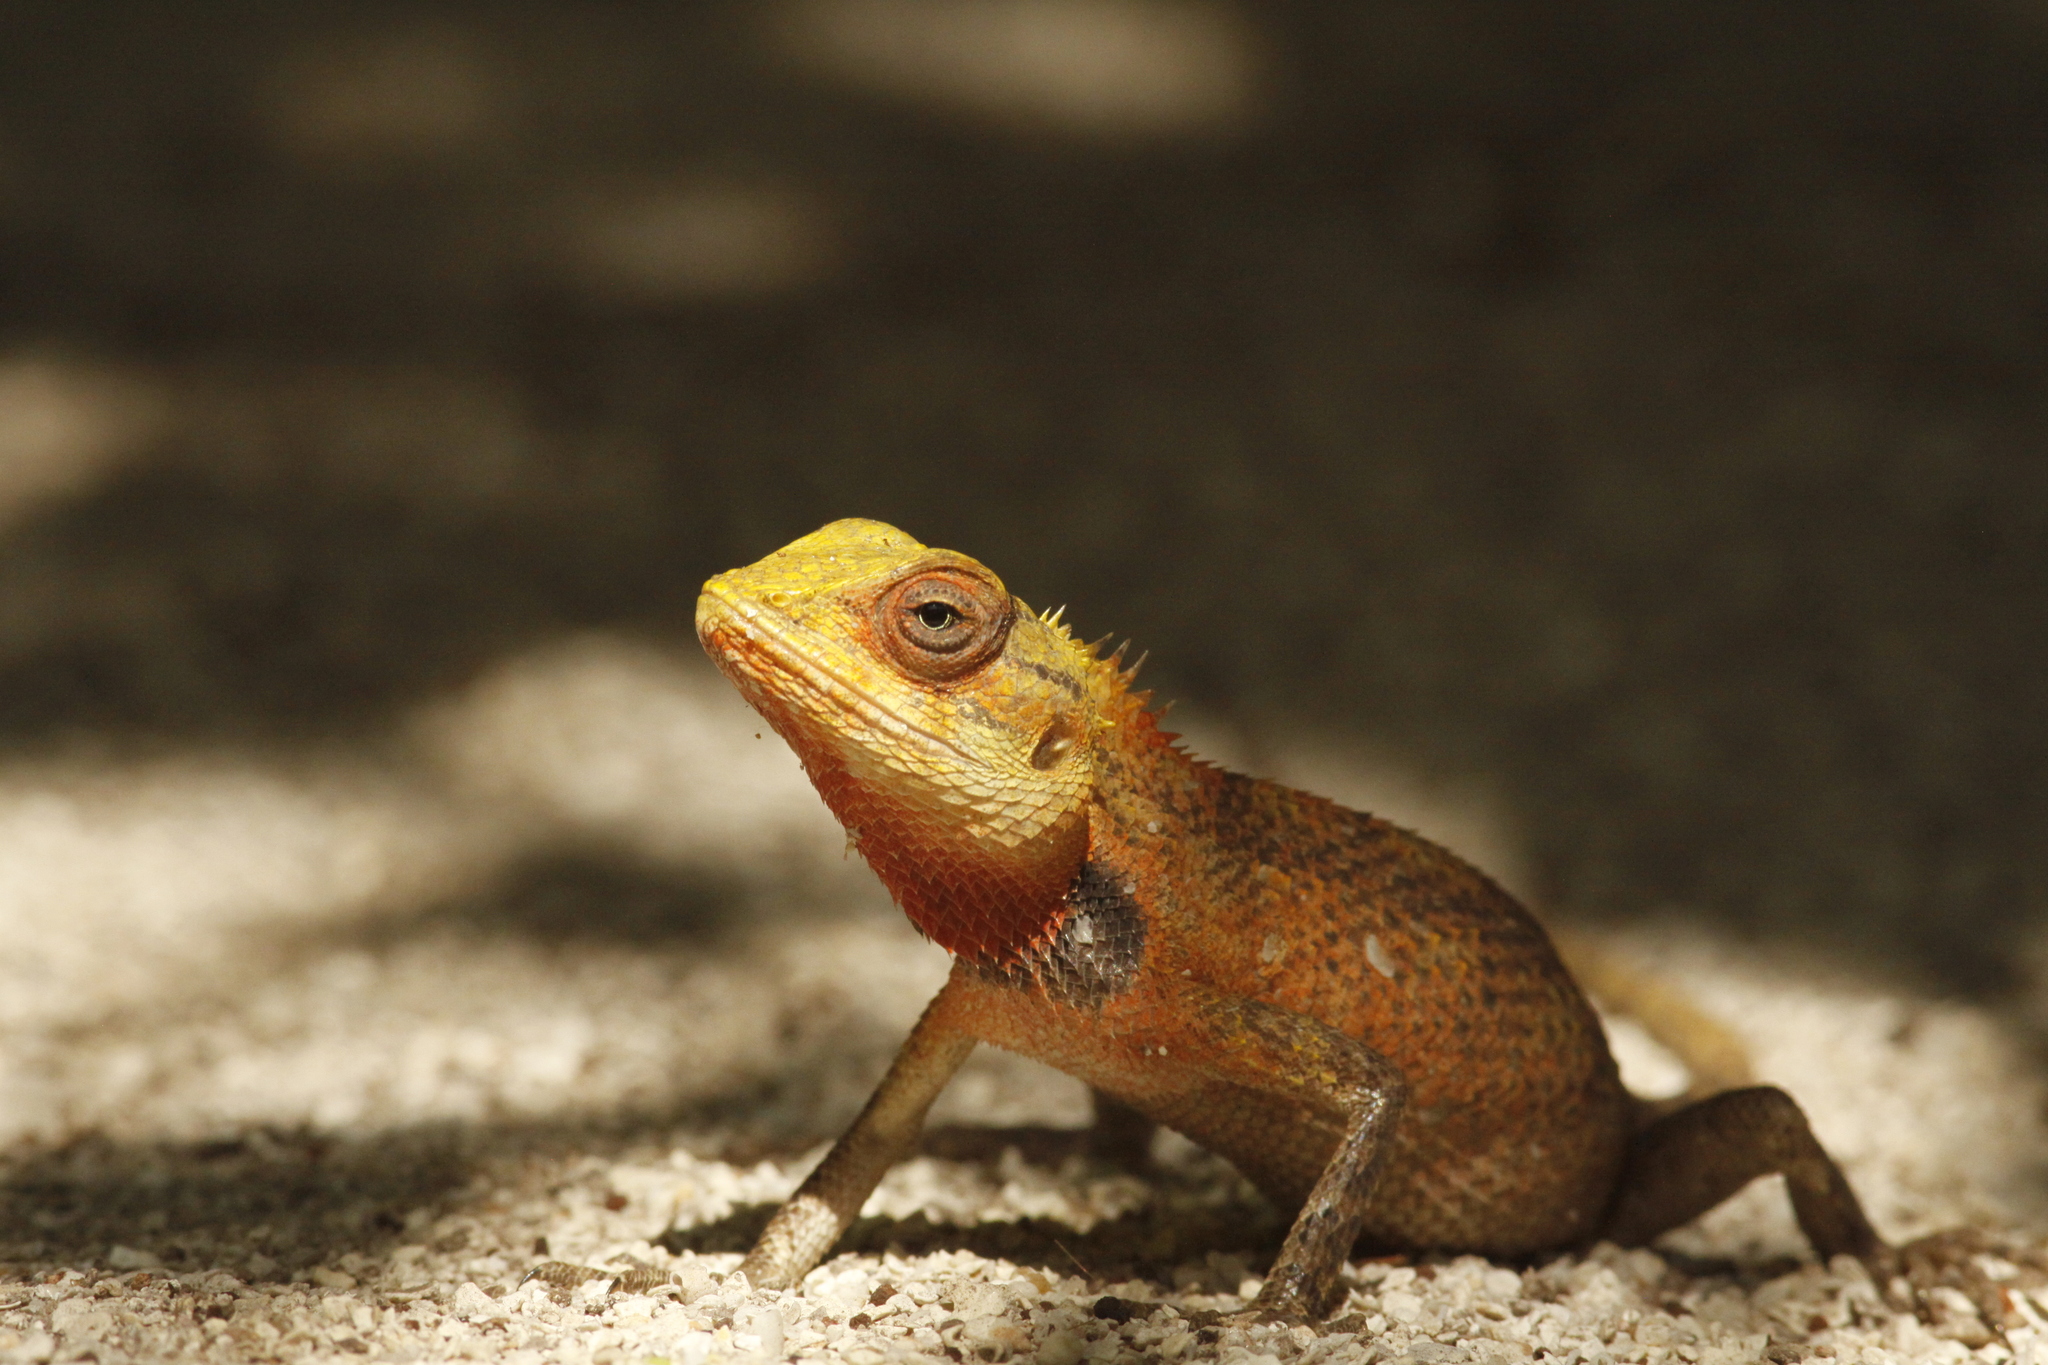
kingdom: Animalia
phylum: Chordata
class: Squamata
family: Agamidae
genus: Calotes
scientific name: Calotes versicolor
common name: Oriental garden lizard
